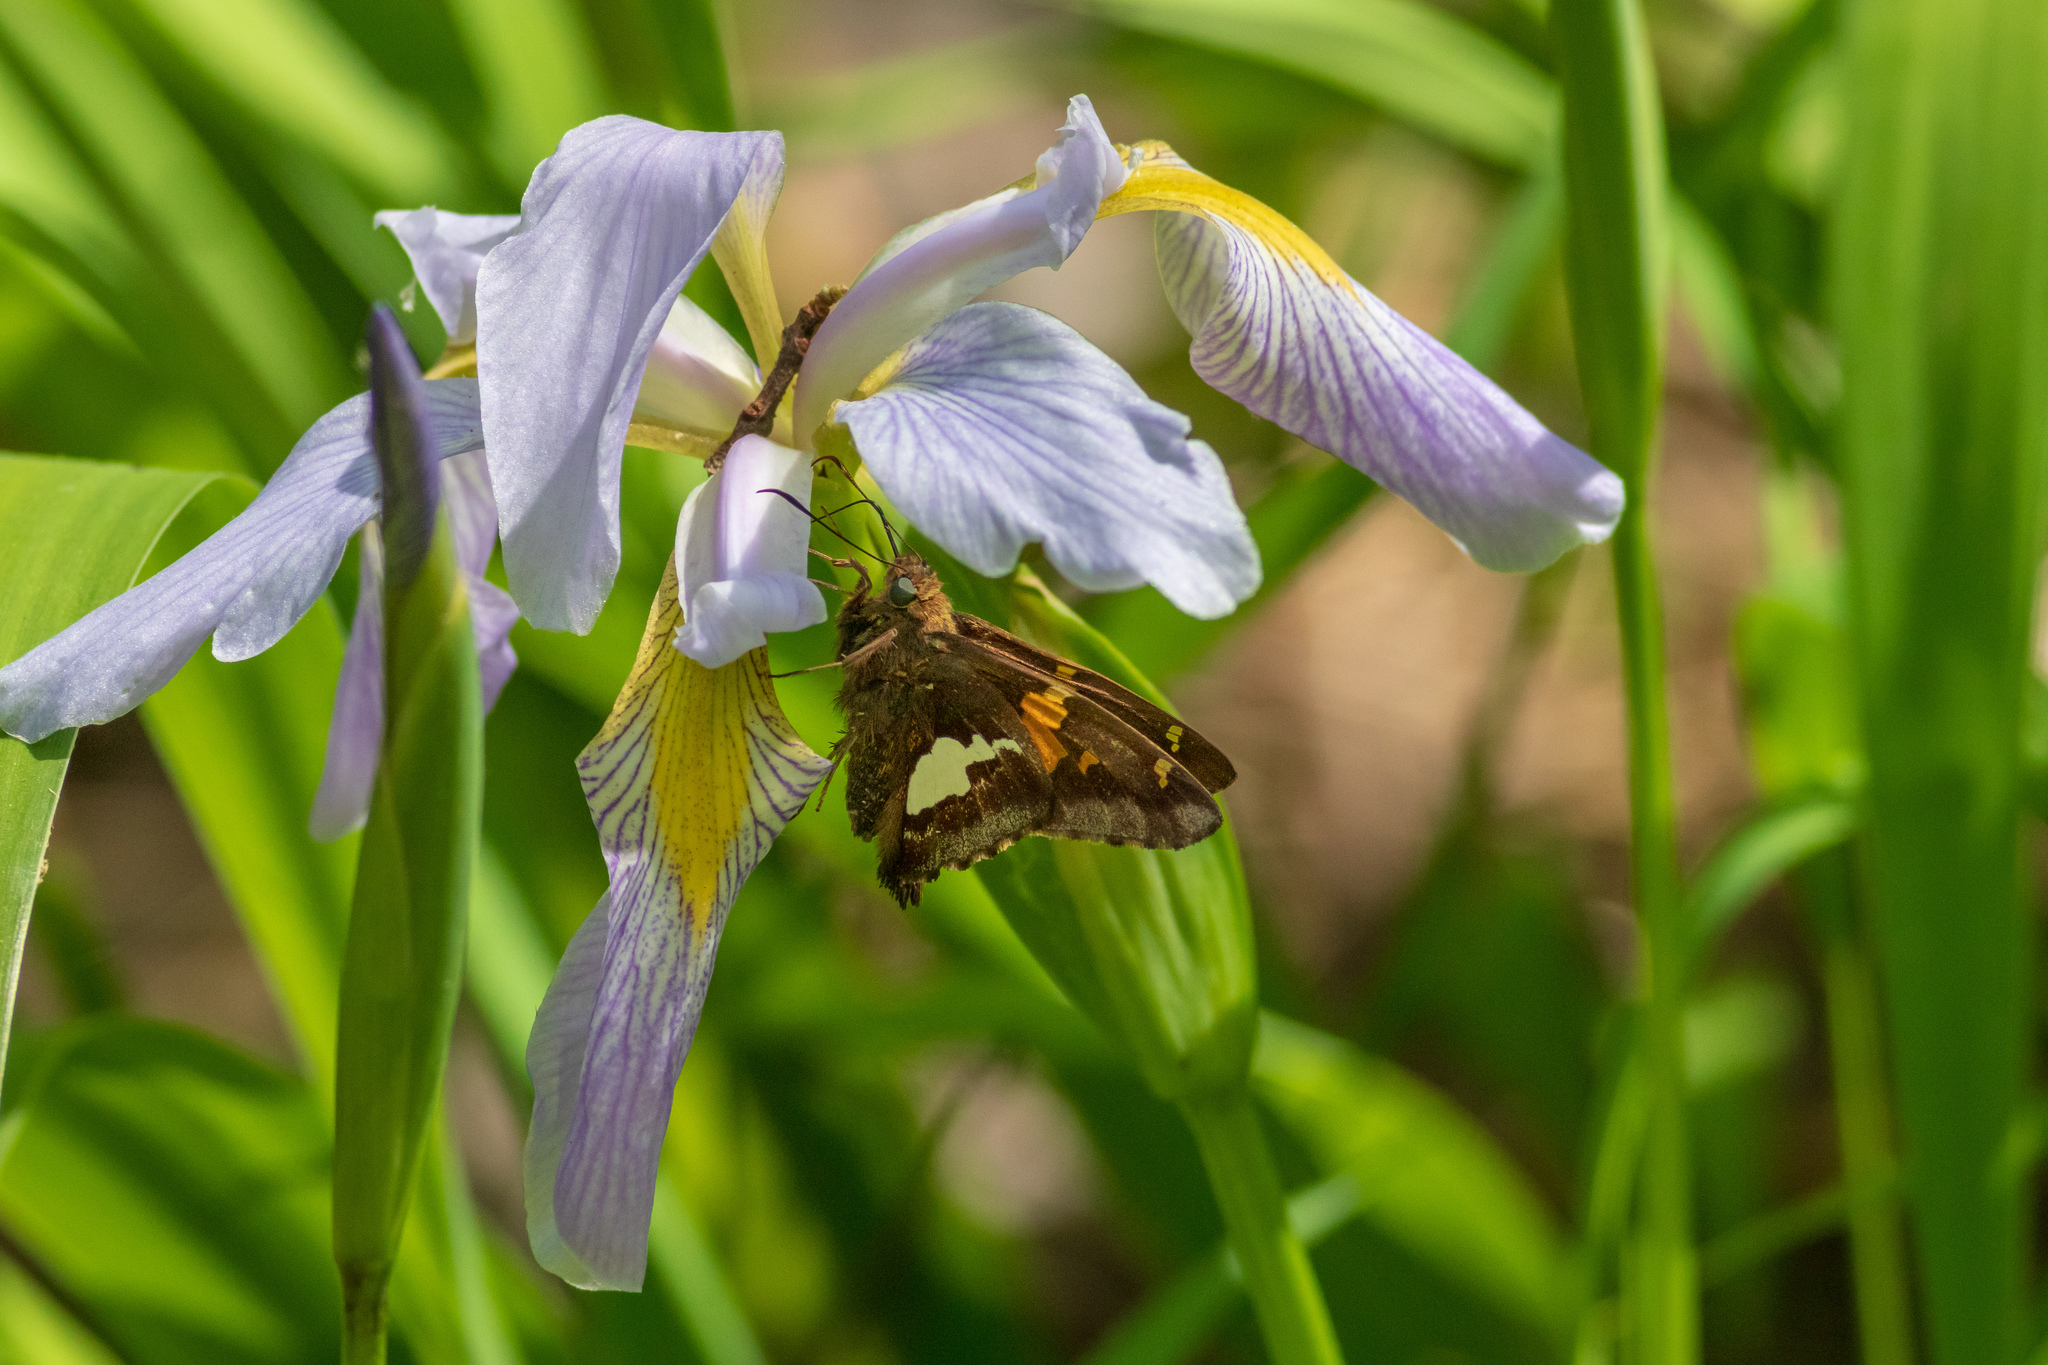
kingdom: Animalia
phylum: Arthropoda
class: Insecta
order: Lepidoptera
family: Hesperiidae
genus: Epargyreus
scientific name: Epargyreus clarus
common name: Silver-spotted skipper
